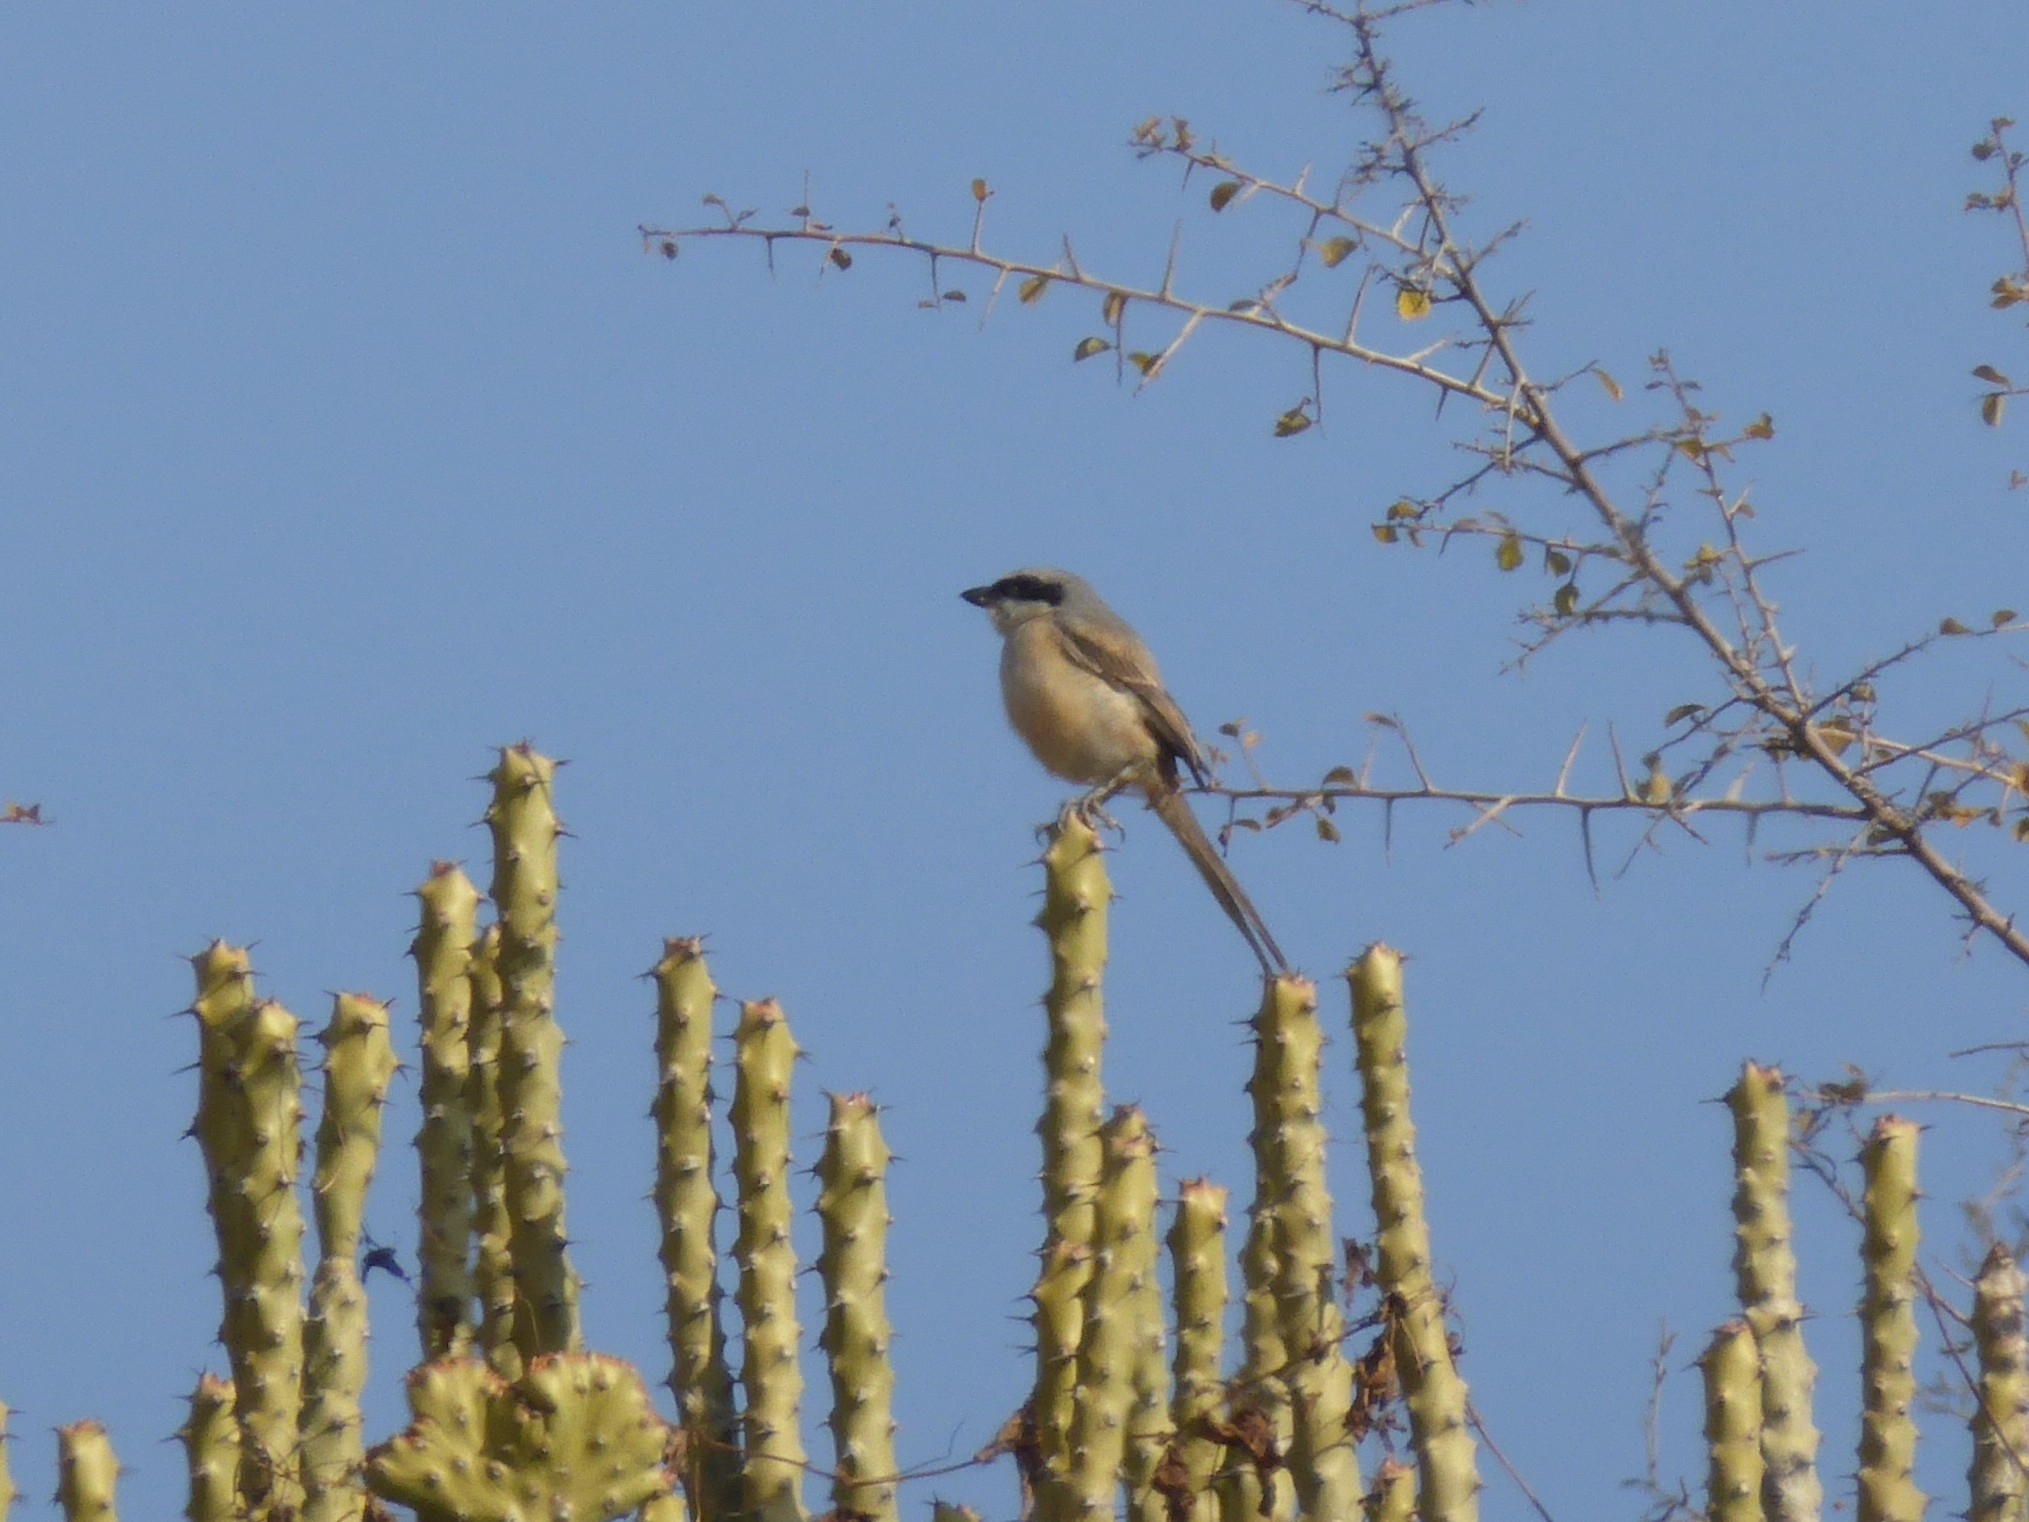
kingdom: Animalia
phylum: Chordata
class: Aves
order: Passeriformes
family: Laniidae
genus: Lanius
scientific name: Lanius schach
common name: Long-tailed shrike
